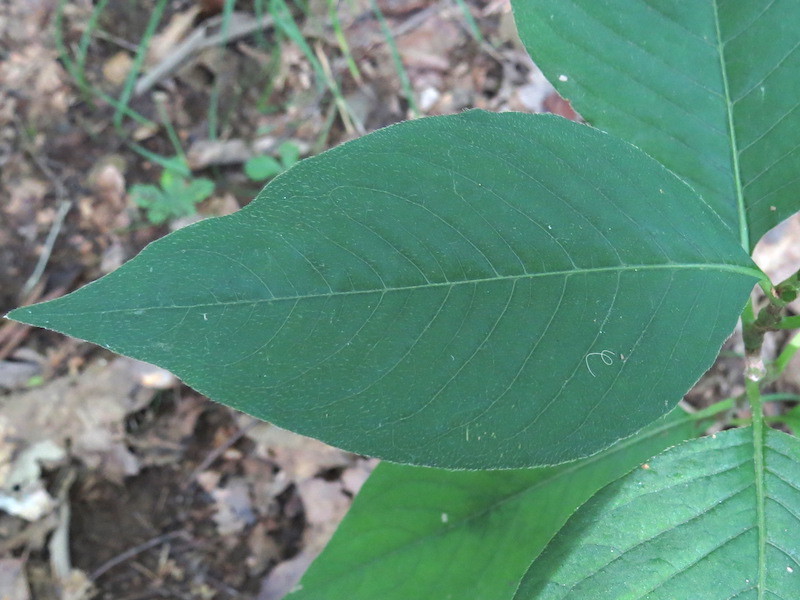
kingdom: Plantae
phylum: Tracheophyta
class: Magnoliopsida
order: Caryophyllales
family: Polygonaceae
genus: Persicaria
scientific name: Persicaria virginiana
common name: Jumpseed
